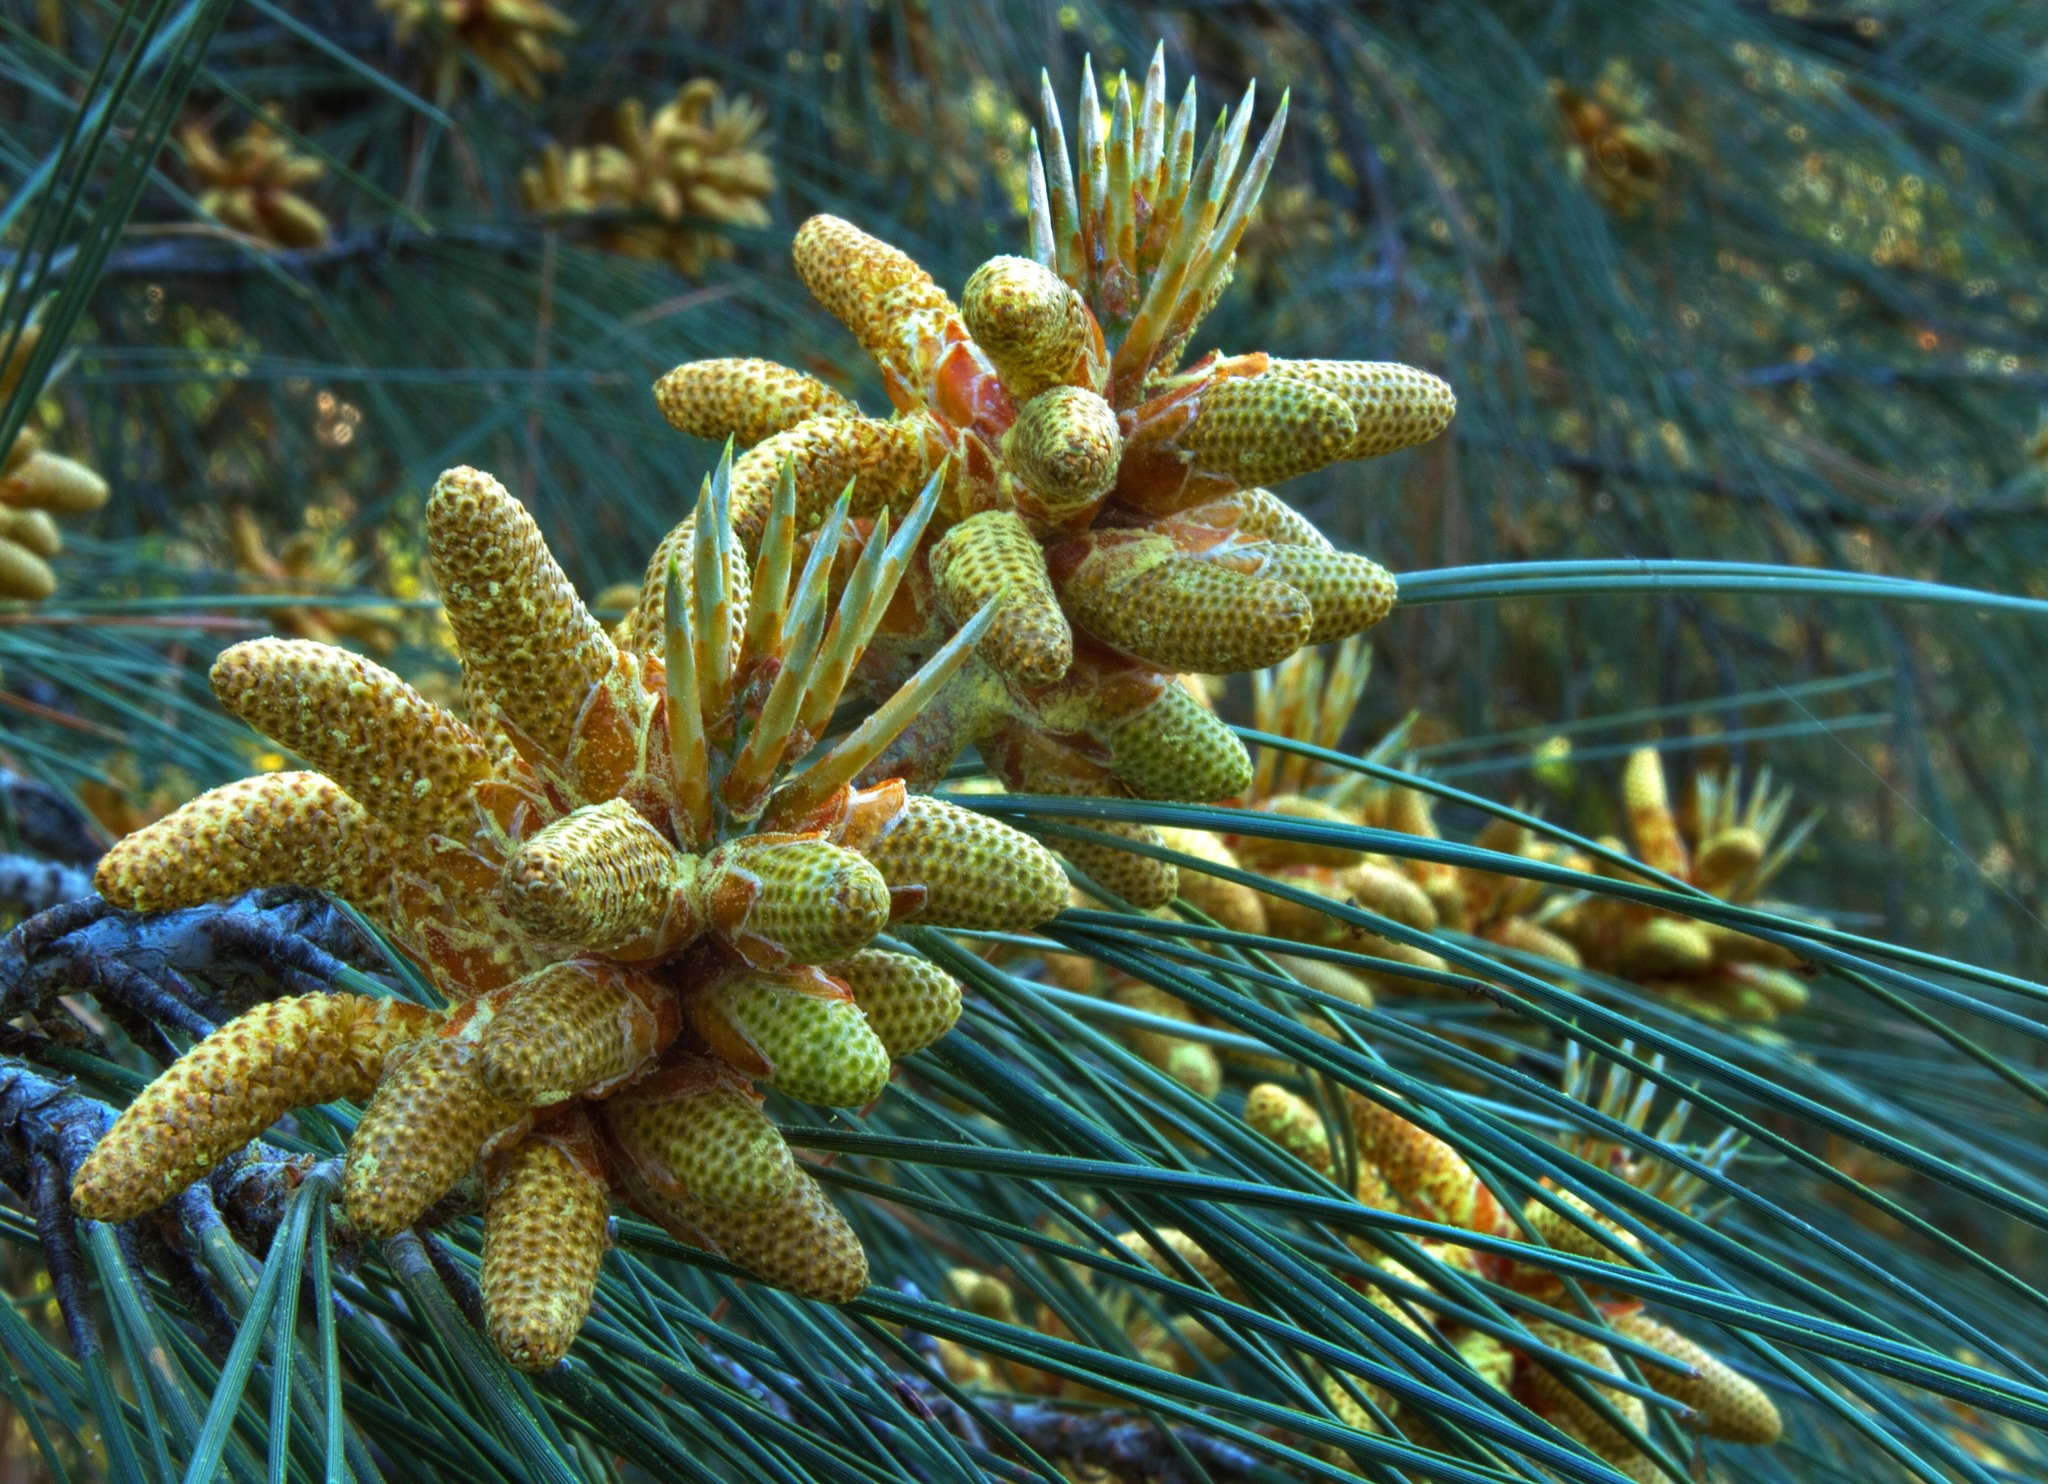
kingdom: Plantae
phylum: Tracheophyta
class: Pinopsida
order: Pinales
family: Pinaceae
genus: Pinus
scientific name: Pinus sabiniana
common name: Bull pine
